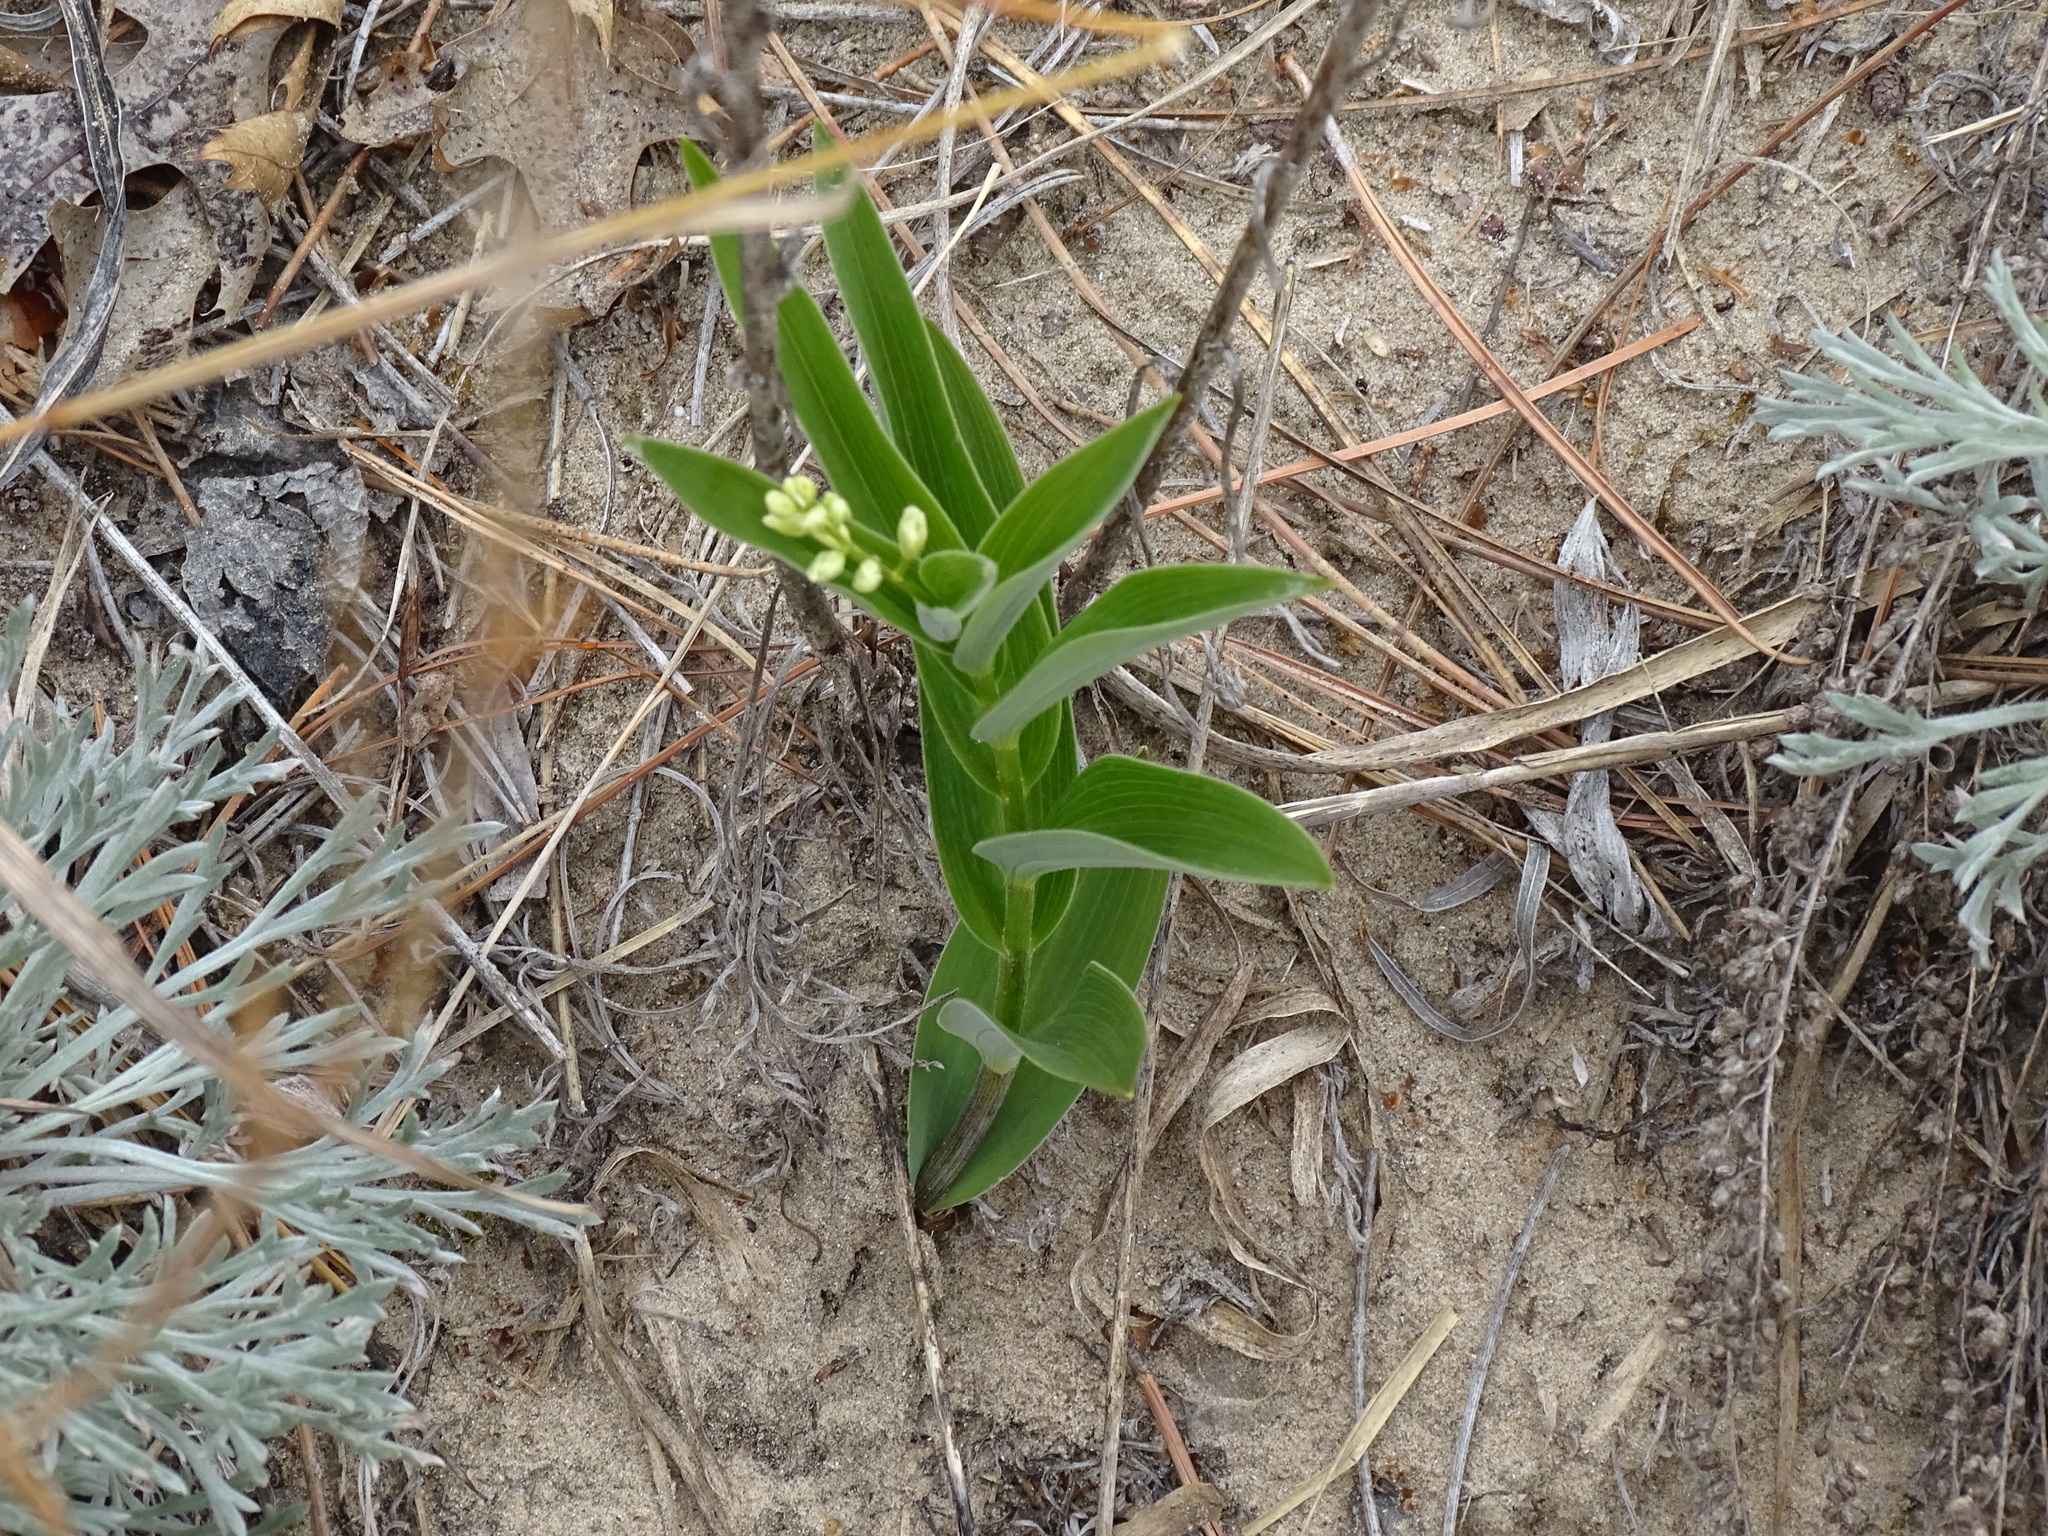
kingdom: Plantae
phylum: Tracheophyta
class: Liliopsida
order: Asparagales
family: Asparagaceae
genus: Maianthemum
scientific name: Maianthemum stellatum
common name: Little false solomon's seal
